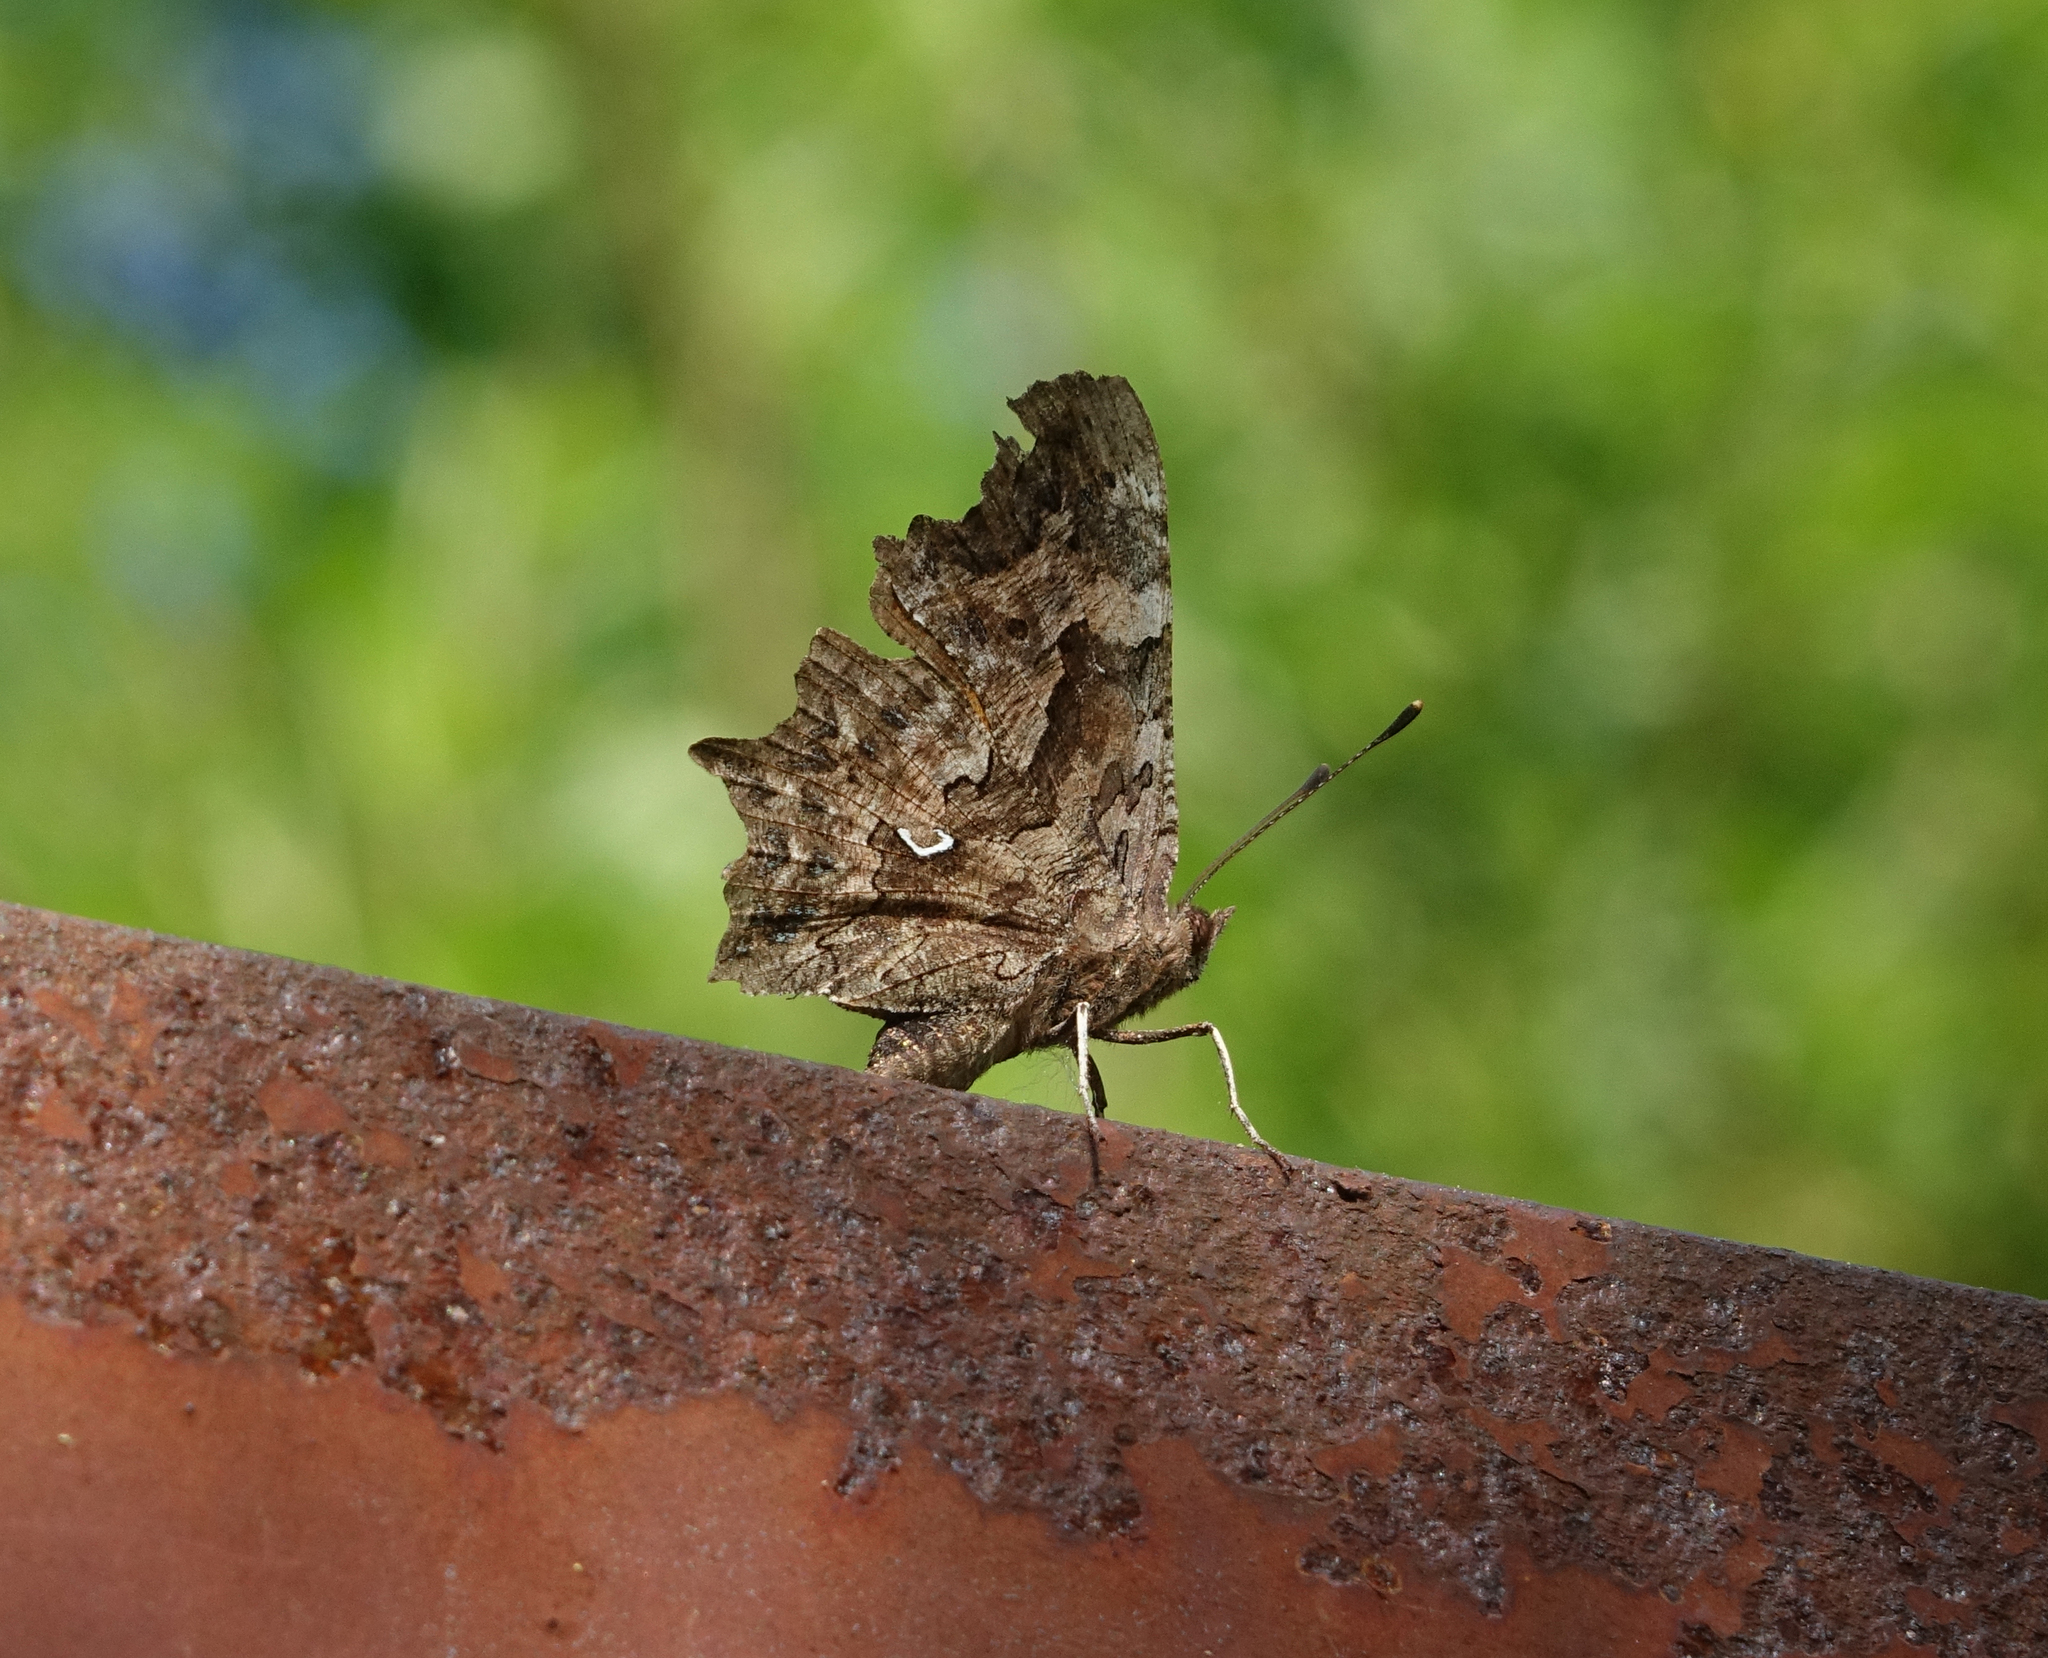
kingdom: Animalia
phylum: Arthropoda
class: Insecta
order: Lepidoptera
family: Nymphalidae
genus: Polygonia
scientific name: Polygonia c-album
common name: Comma
